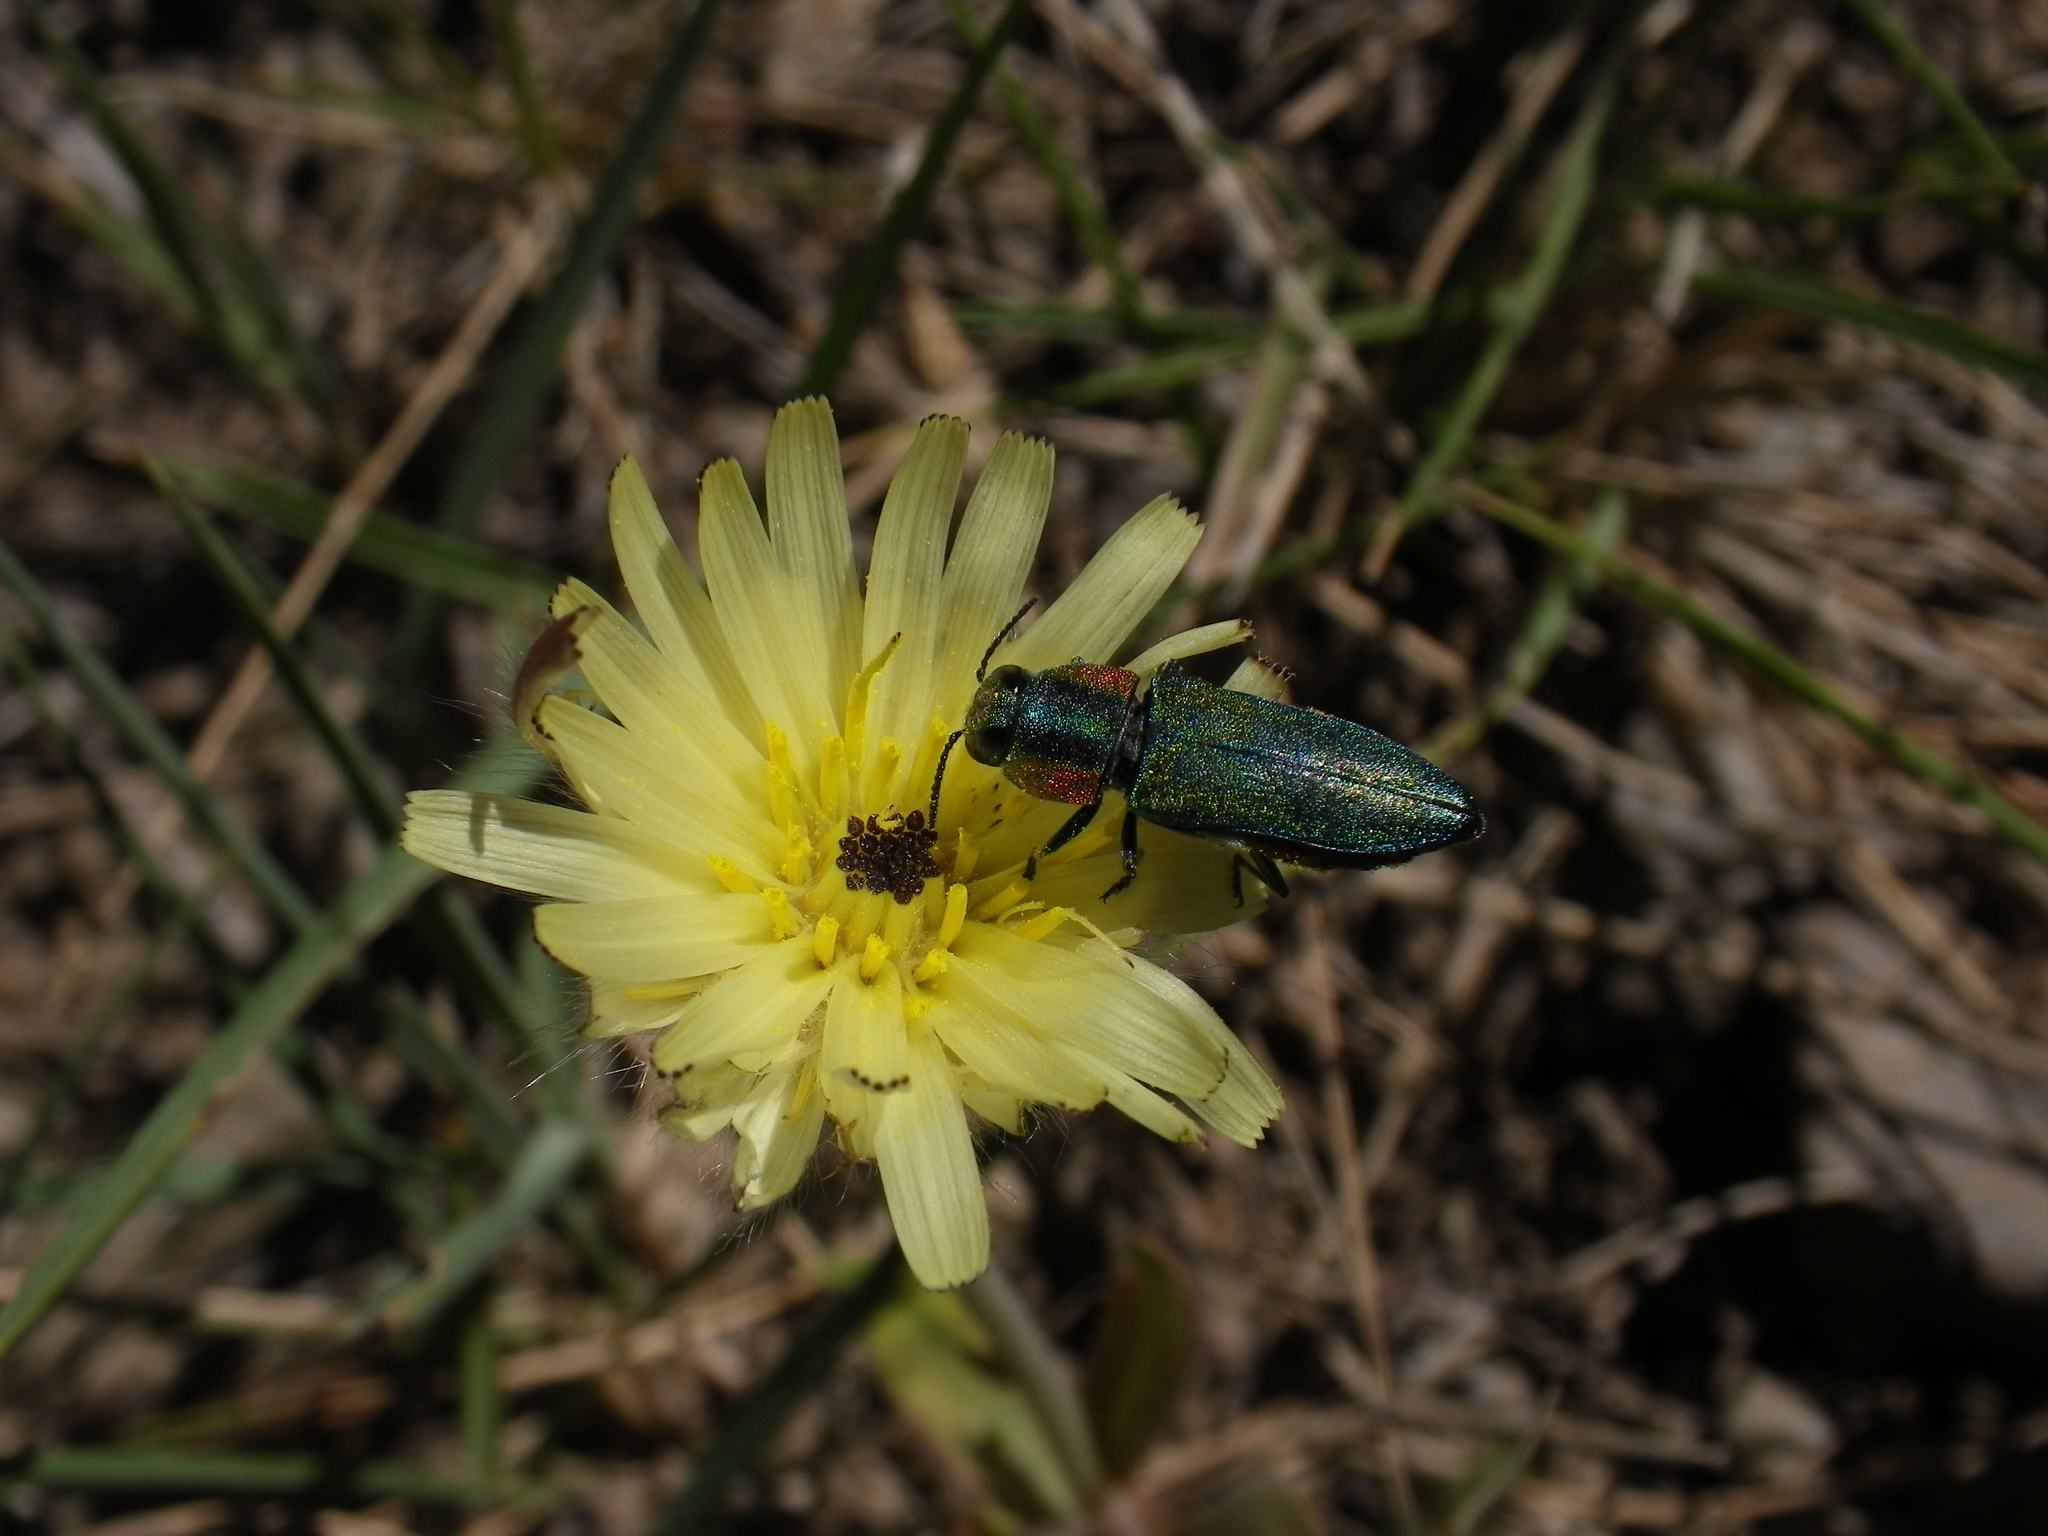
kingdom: Animalia
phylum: Arthropoda
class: Insecta
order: Coleoptera
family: Buprestidae
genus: Anthaxia
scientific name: Anthaxia hungarica
